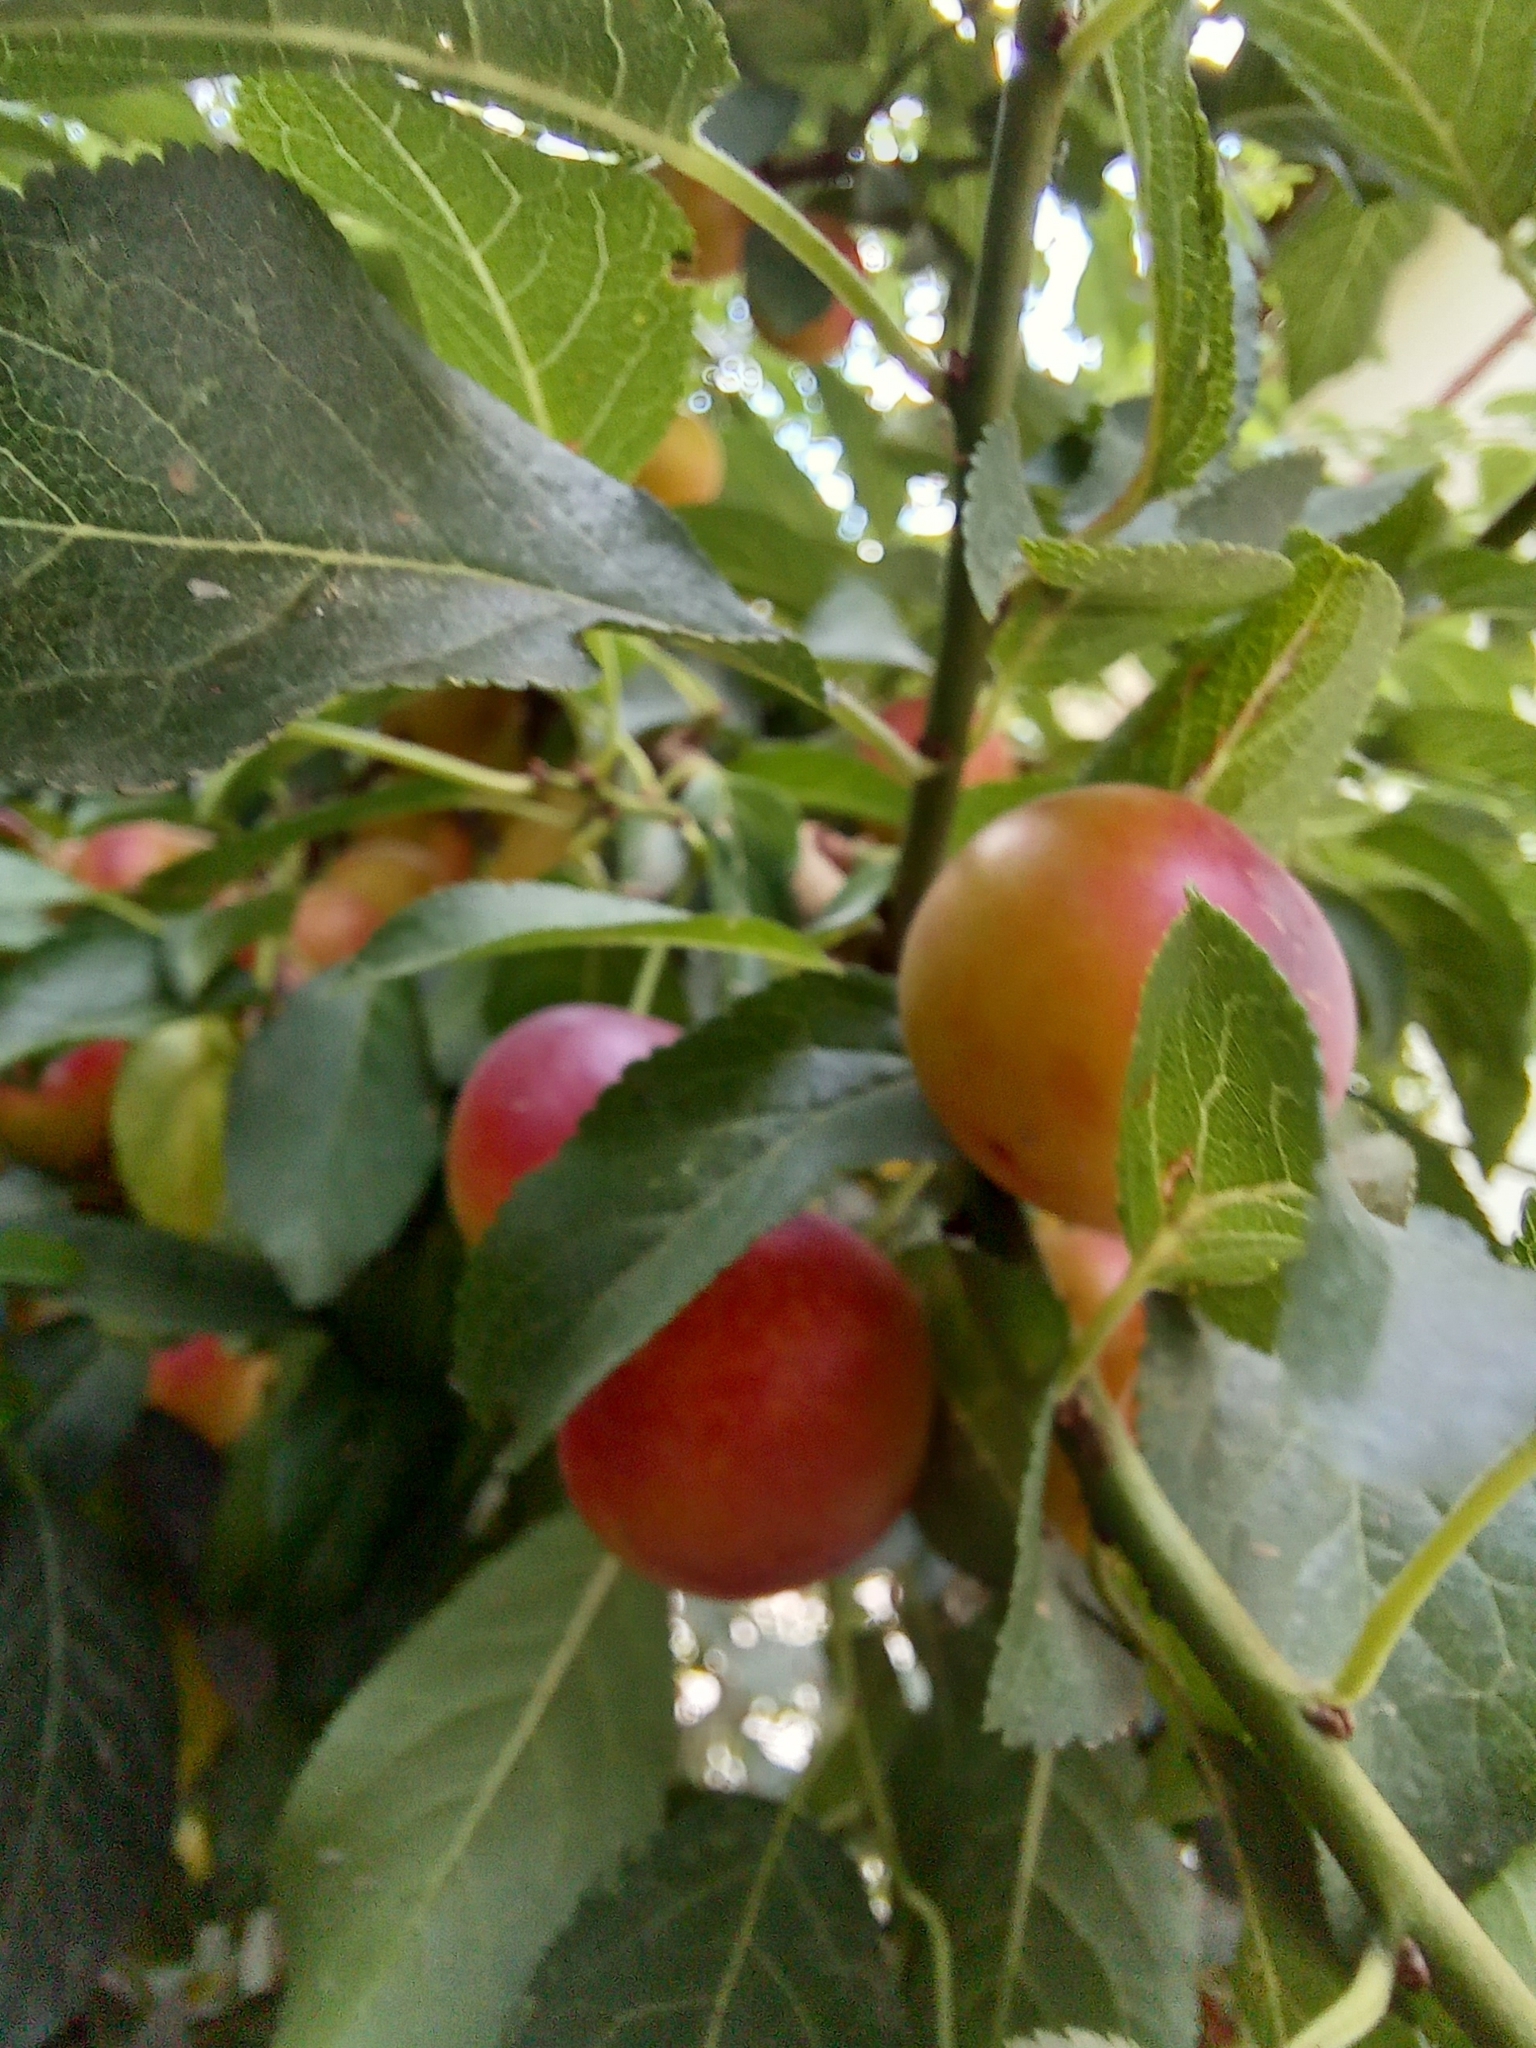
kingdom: Plantae
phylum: Tracheophyta
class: Magnoliopsida
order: Rosales
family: Rosaceae
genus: Prunus
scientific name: Prunus cerasifera
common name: Cherry plum
